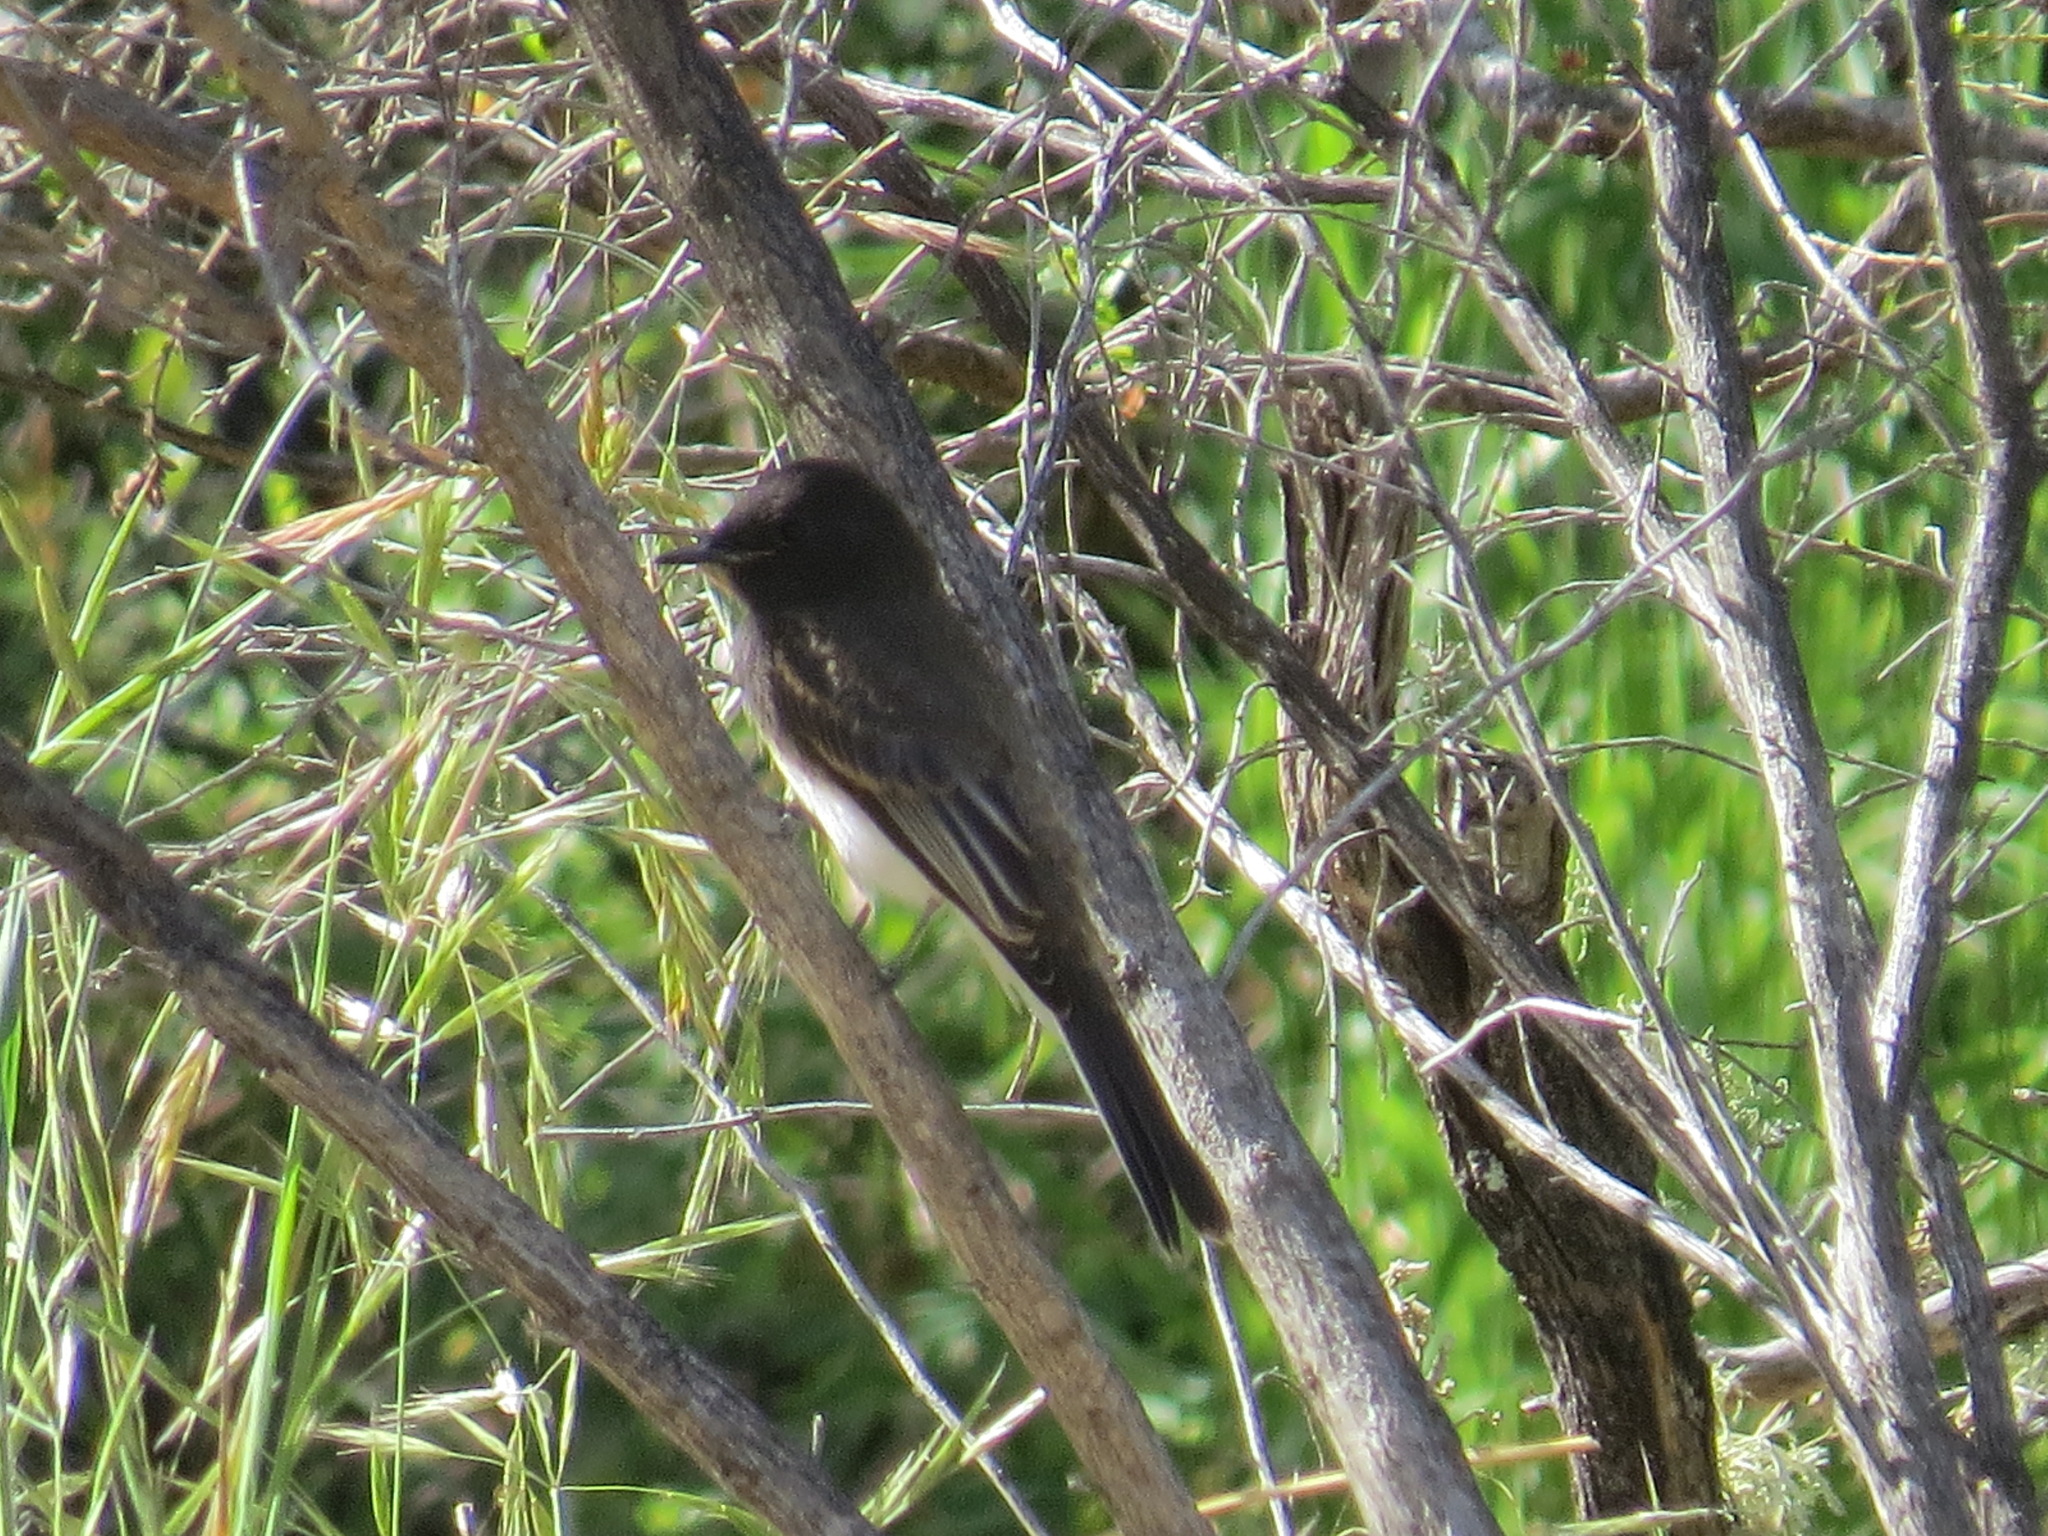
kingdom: Animalia
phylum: Chordata
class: Aves
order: Passeriformes
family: Tyrannidae
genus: Sayornis
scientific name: Sayornis nigricans
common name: Black phoebe
